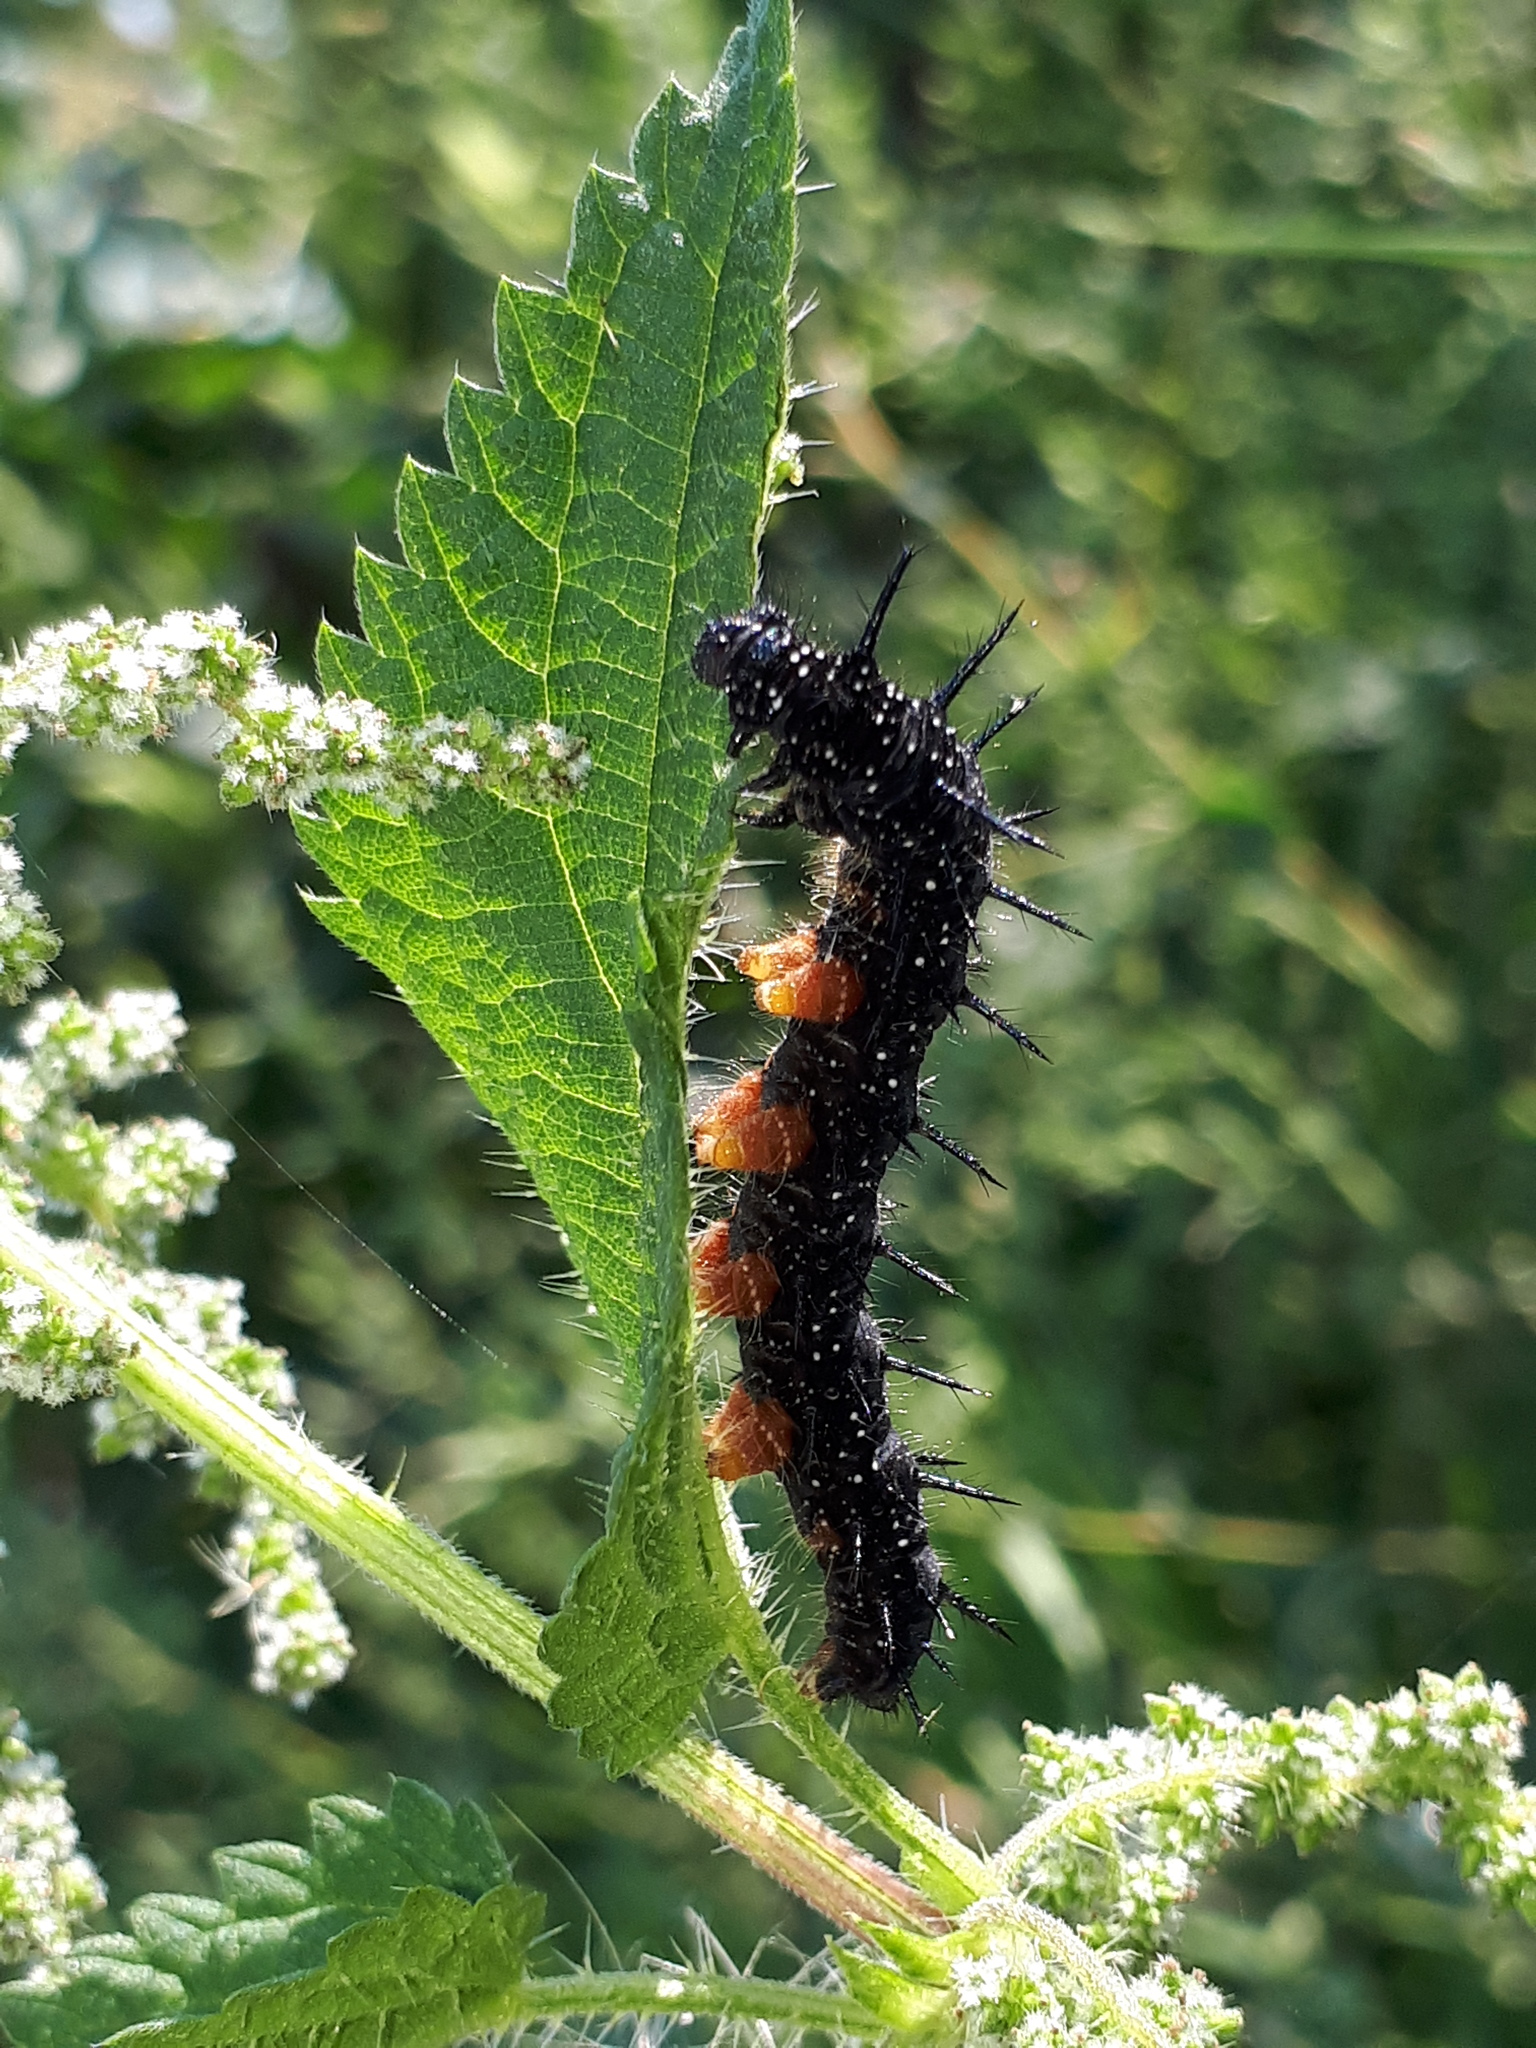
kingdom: Animalia
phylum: Arthropoda
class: Insecta
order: Lepidoptera
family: Nymphalidae
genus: Aglais
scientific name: Aglais io
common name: Peacock
